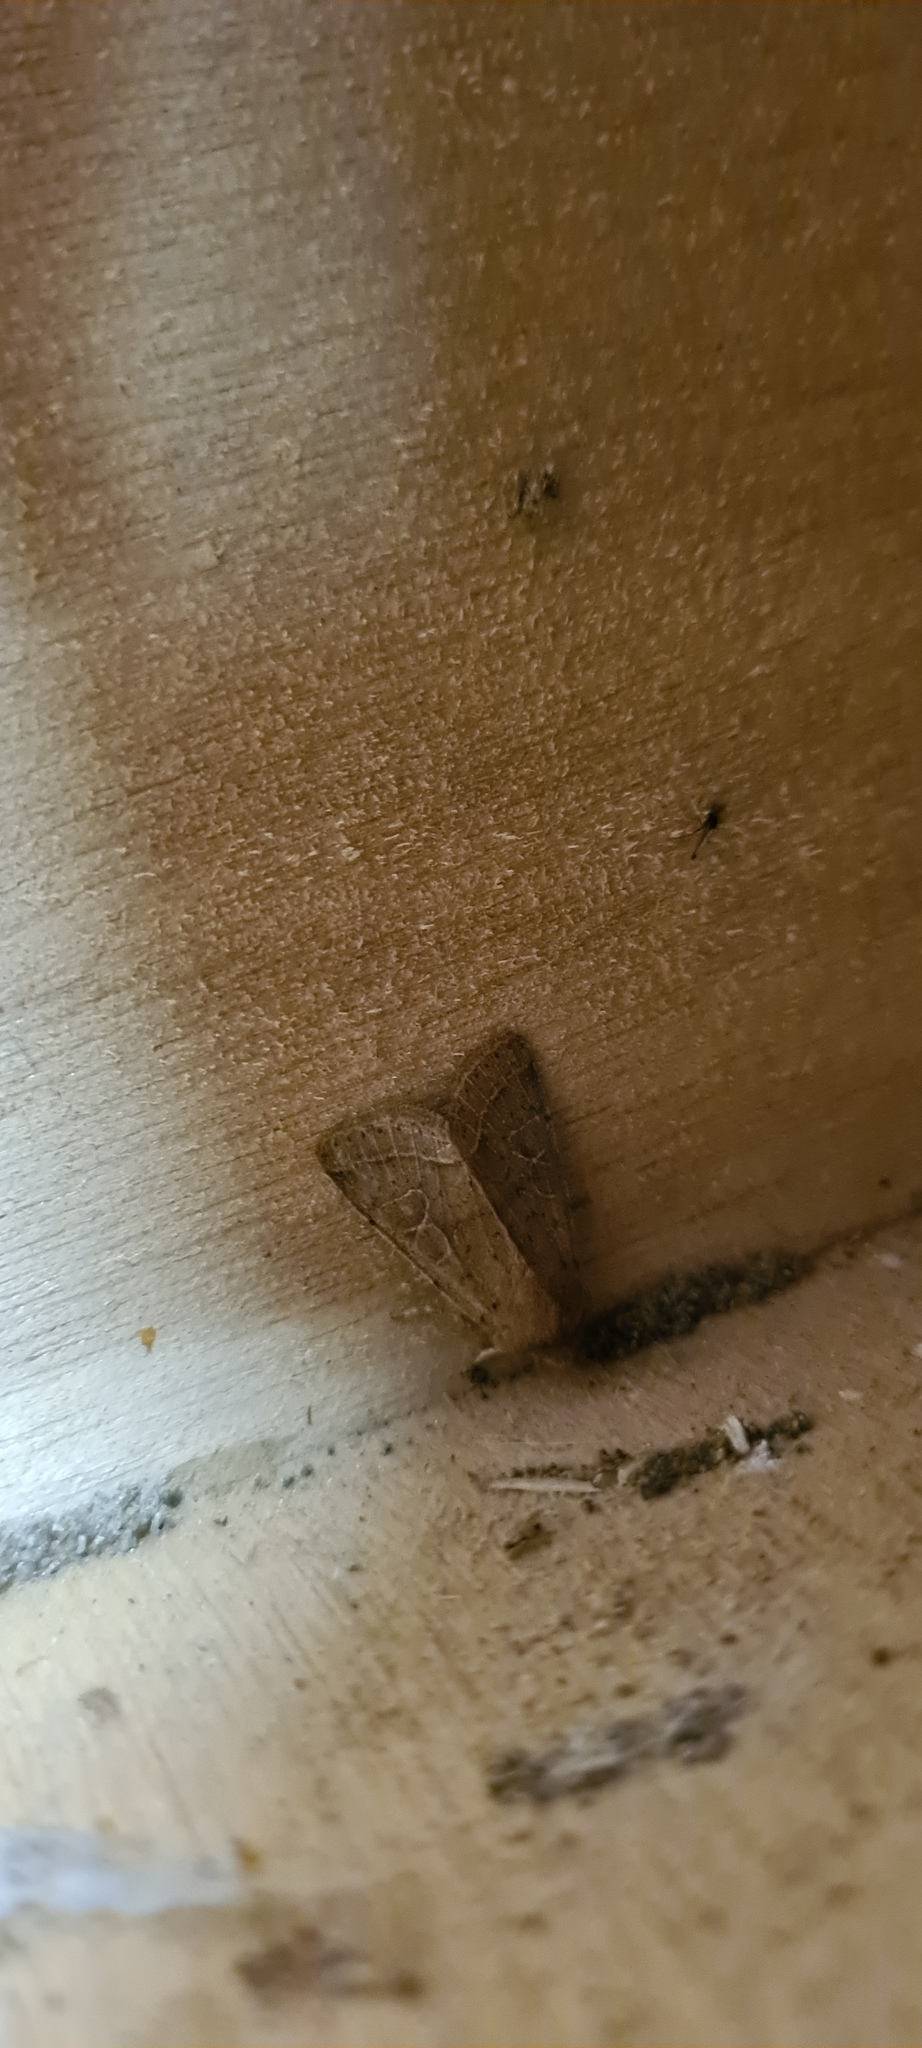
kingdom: Animalia
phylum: Arthropoda
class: Insecta
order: Lepidoptera
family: Noctuidae
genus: Orthosia
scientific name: Orthosia cerasi
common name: Common quaker
